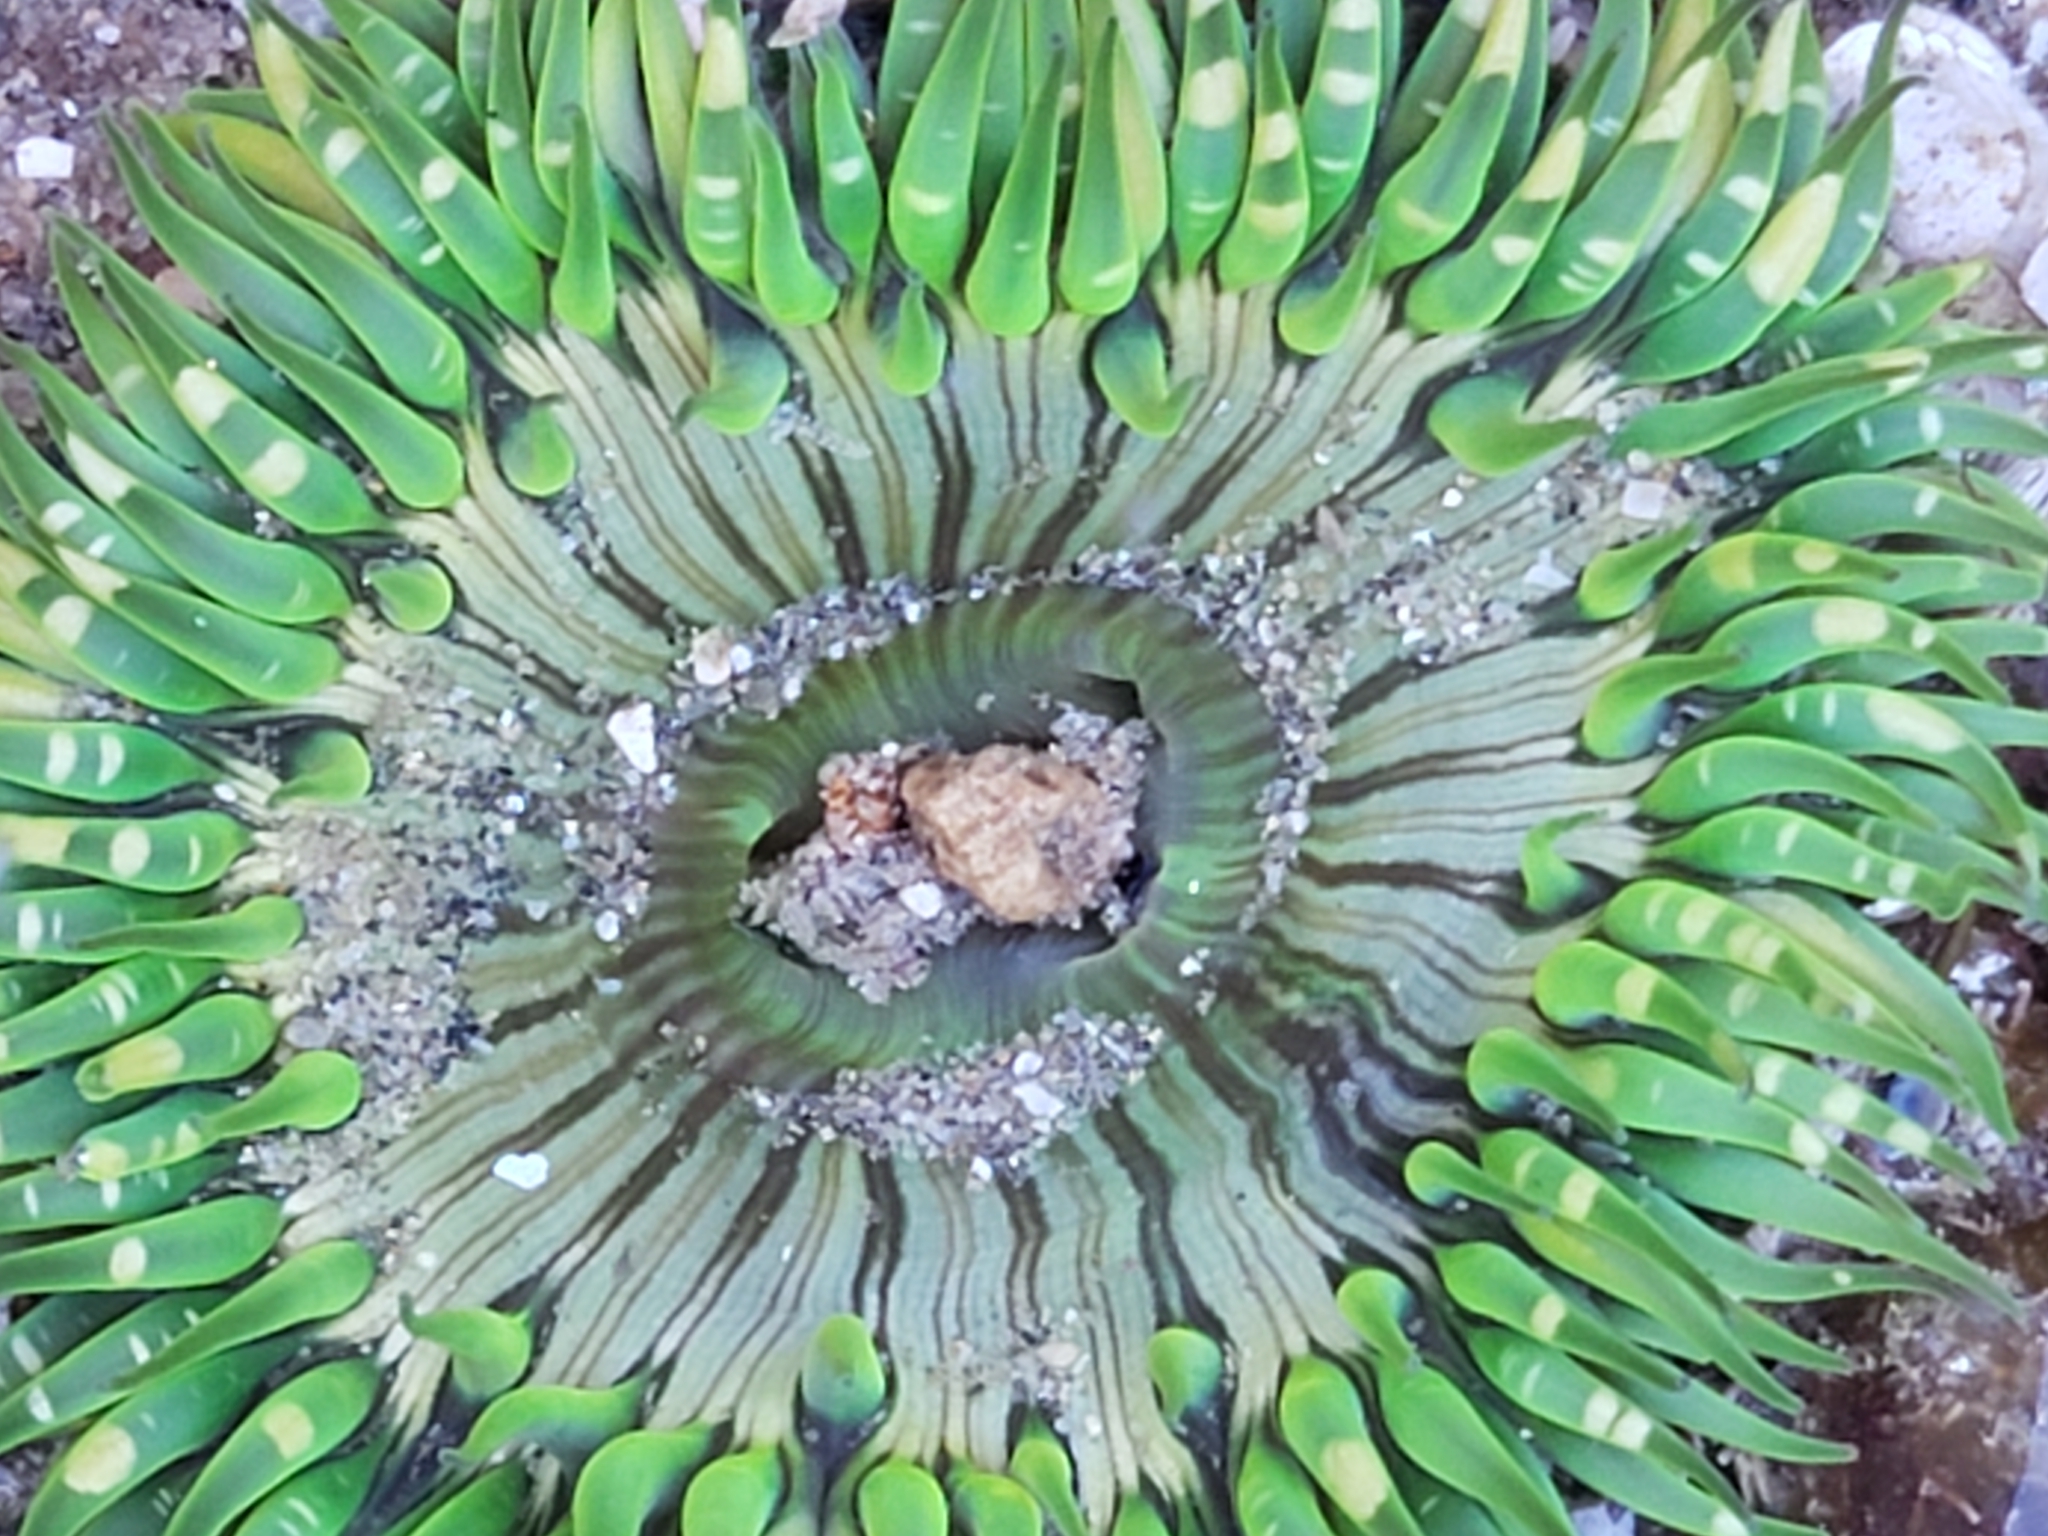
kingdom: Animalia
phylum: Cnidaria
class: Anthozoa
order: Actiniaria
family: Actiniidae
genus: Anthopleura
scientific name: Anthopleura sola
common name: Sun anemone
